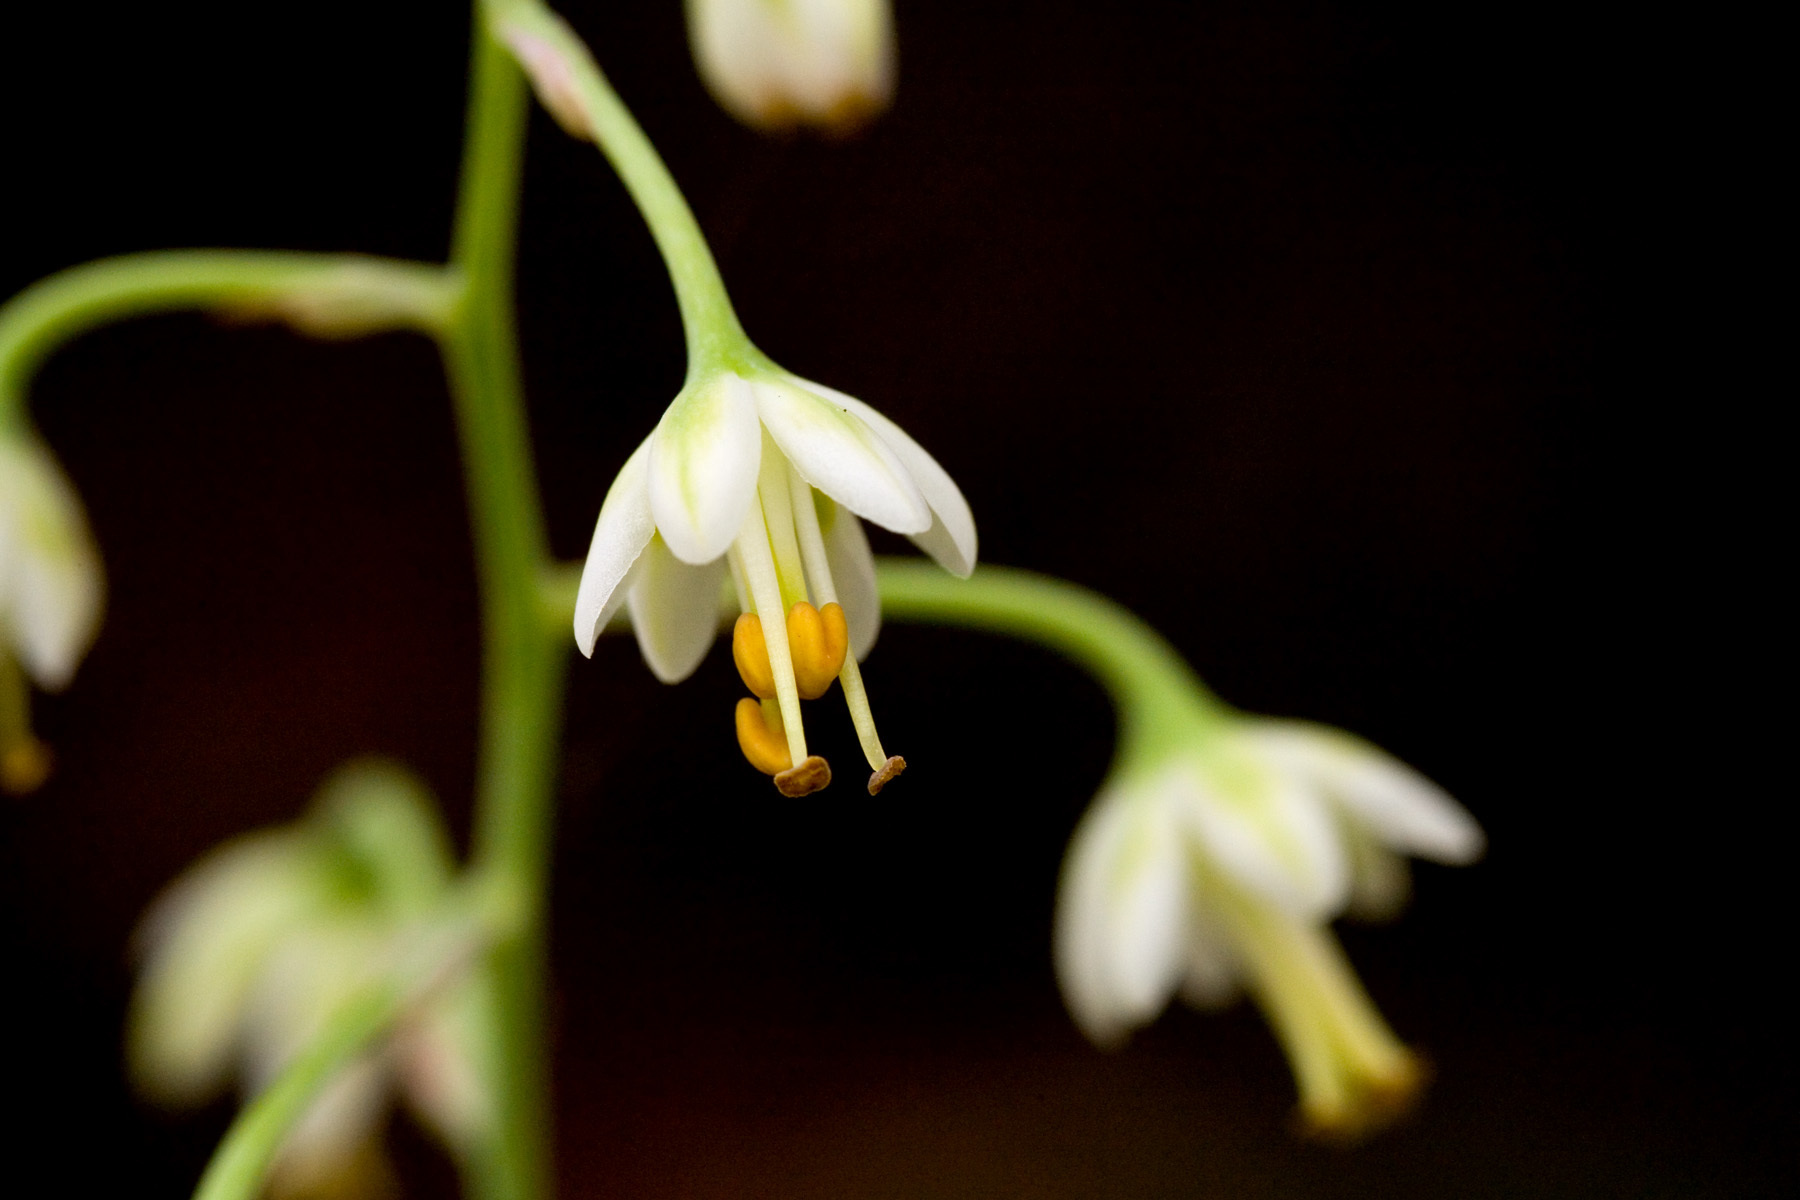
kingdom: Plantae
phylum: Tracheophyta
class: Liliopsida
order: Liliales
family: Melanthiaceae
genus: Anticlea
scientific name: Anticlea virescens
